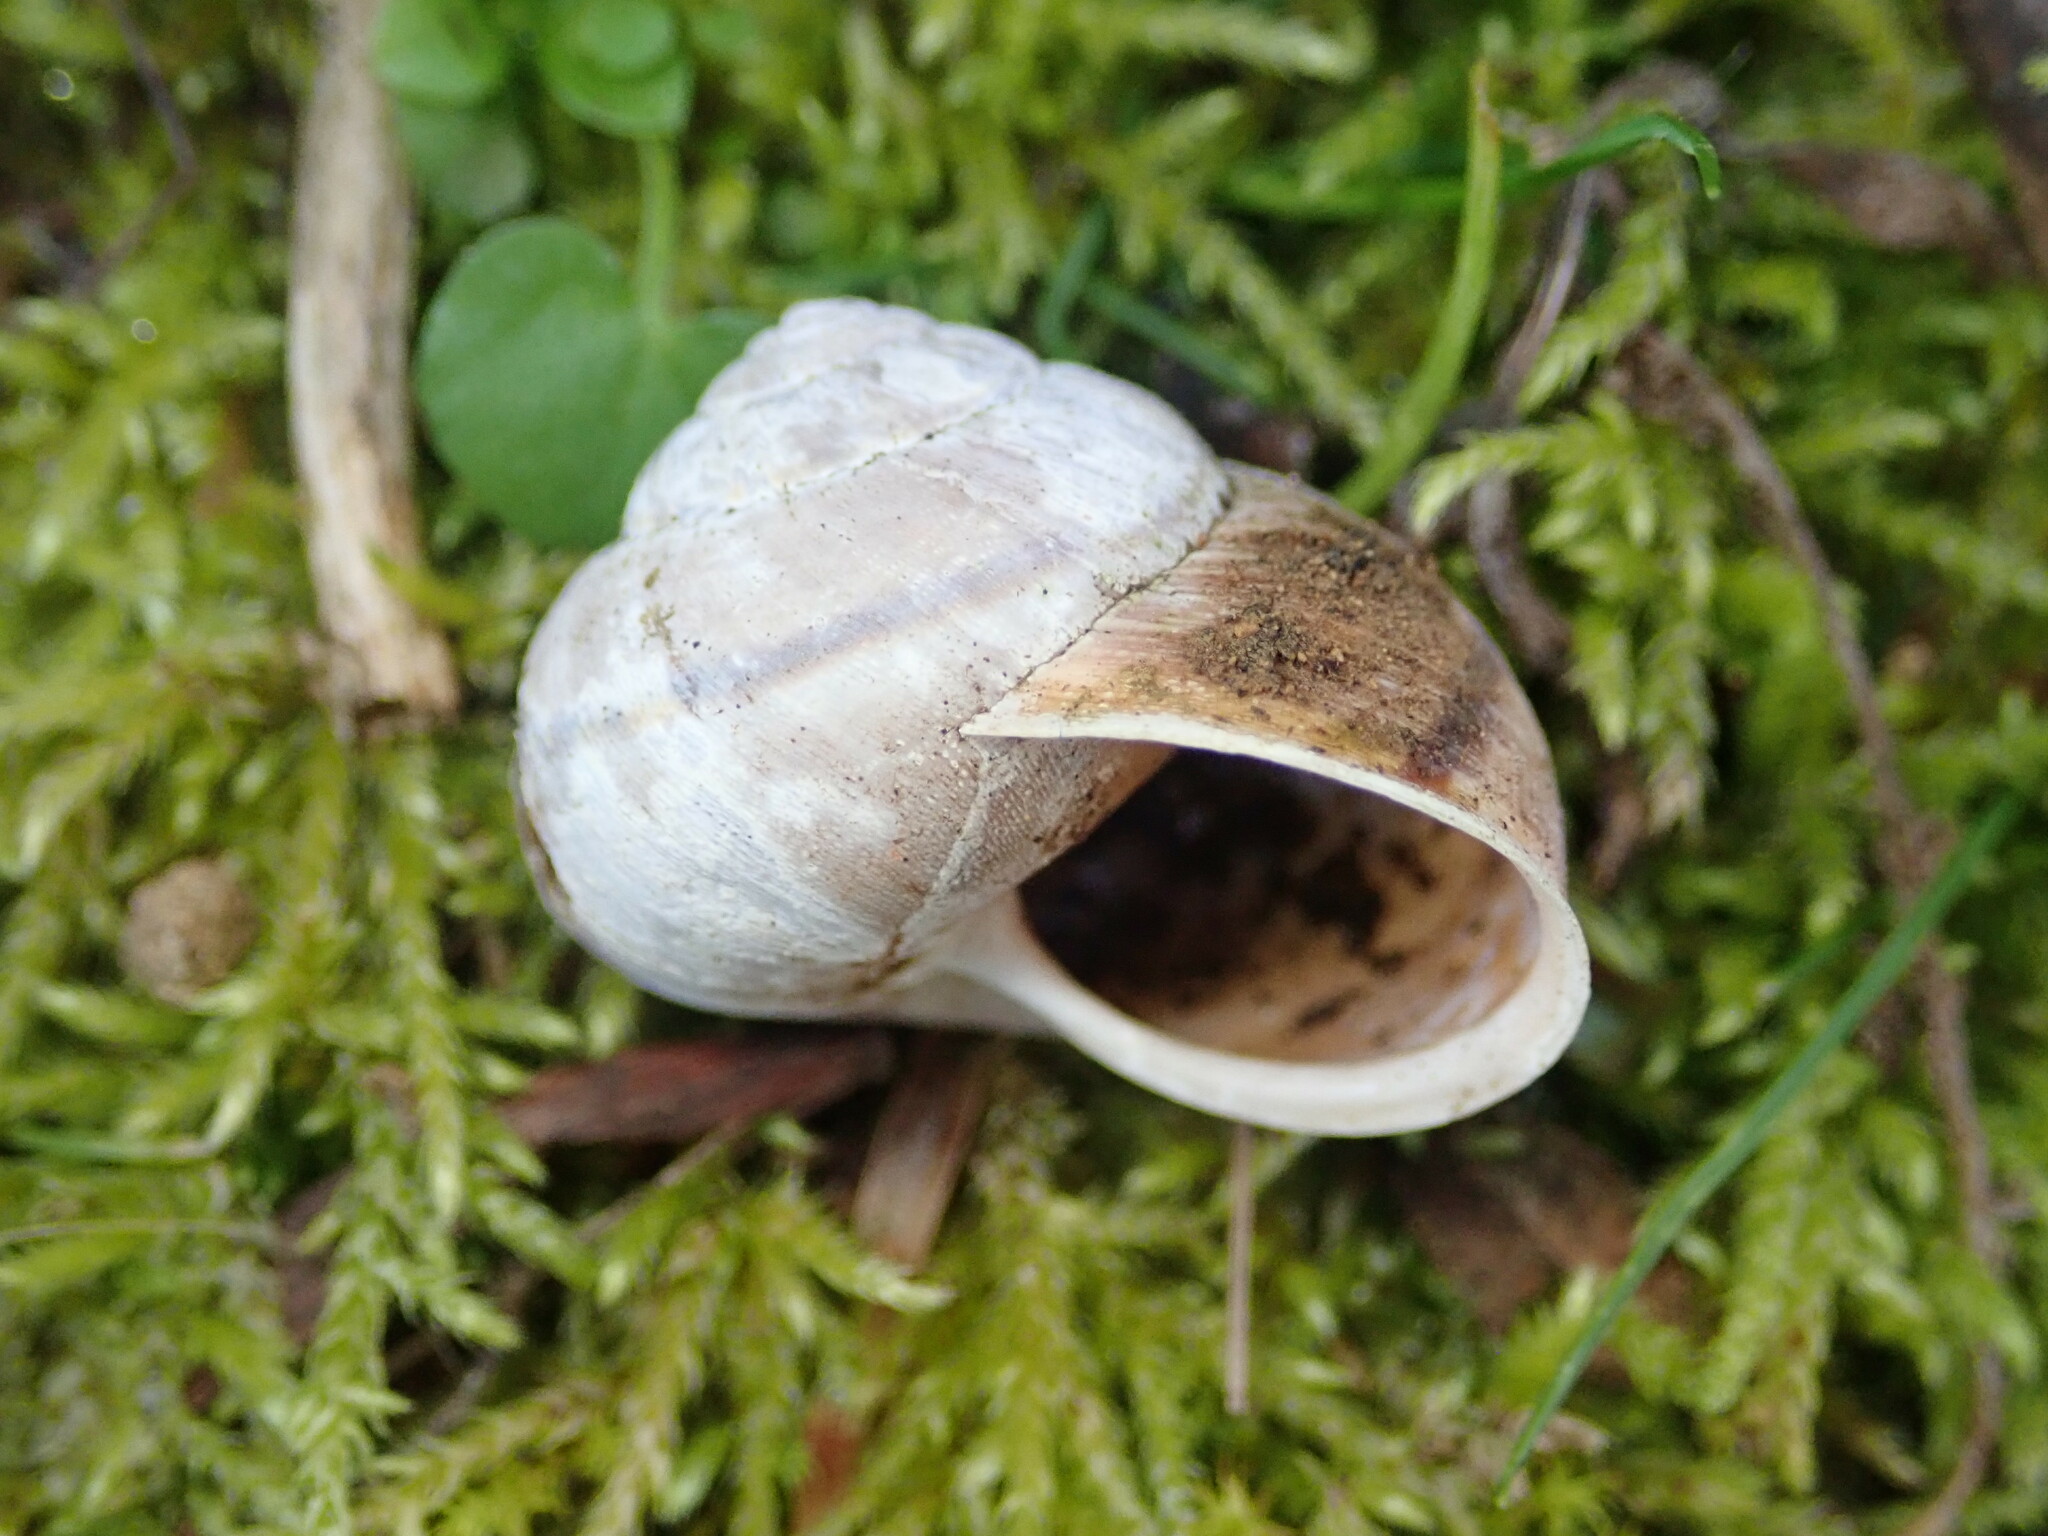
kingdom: Animalia
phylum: Mollusca
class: Gastropoda
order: Stylommatophora
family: Xanthonychidae
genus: Helminthoglypta
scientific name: Helminthoglypta nickliniana
